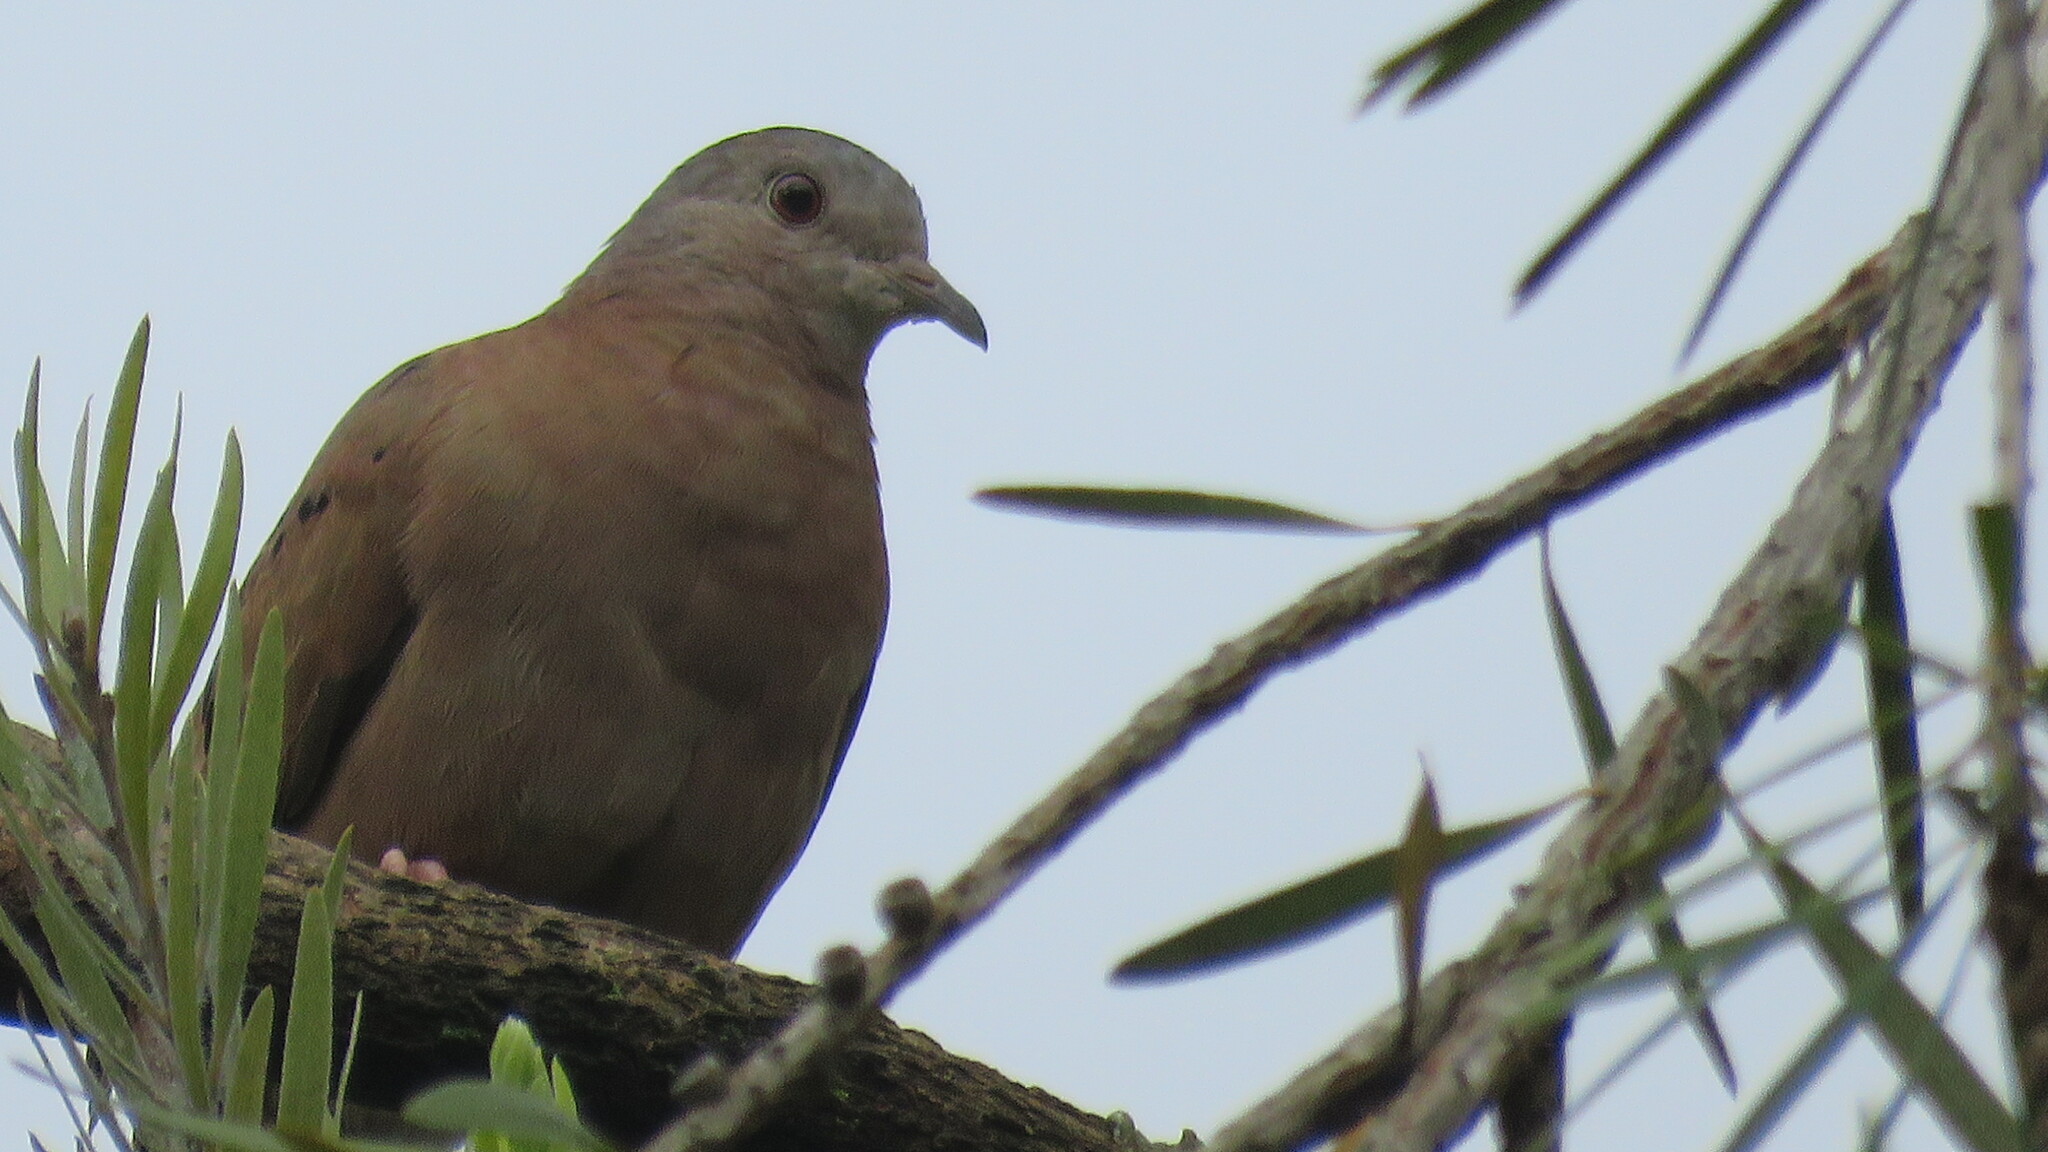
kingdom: Animalia
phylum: Chordata
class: Aves
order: Columbiformes
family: Columbidae
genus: Columbina
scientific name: Columbina talpacoti
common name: Ruddy ground dove
